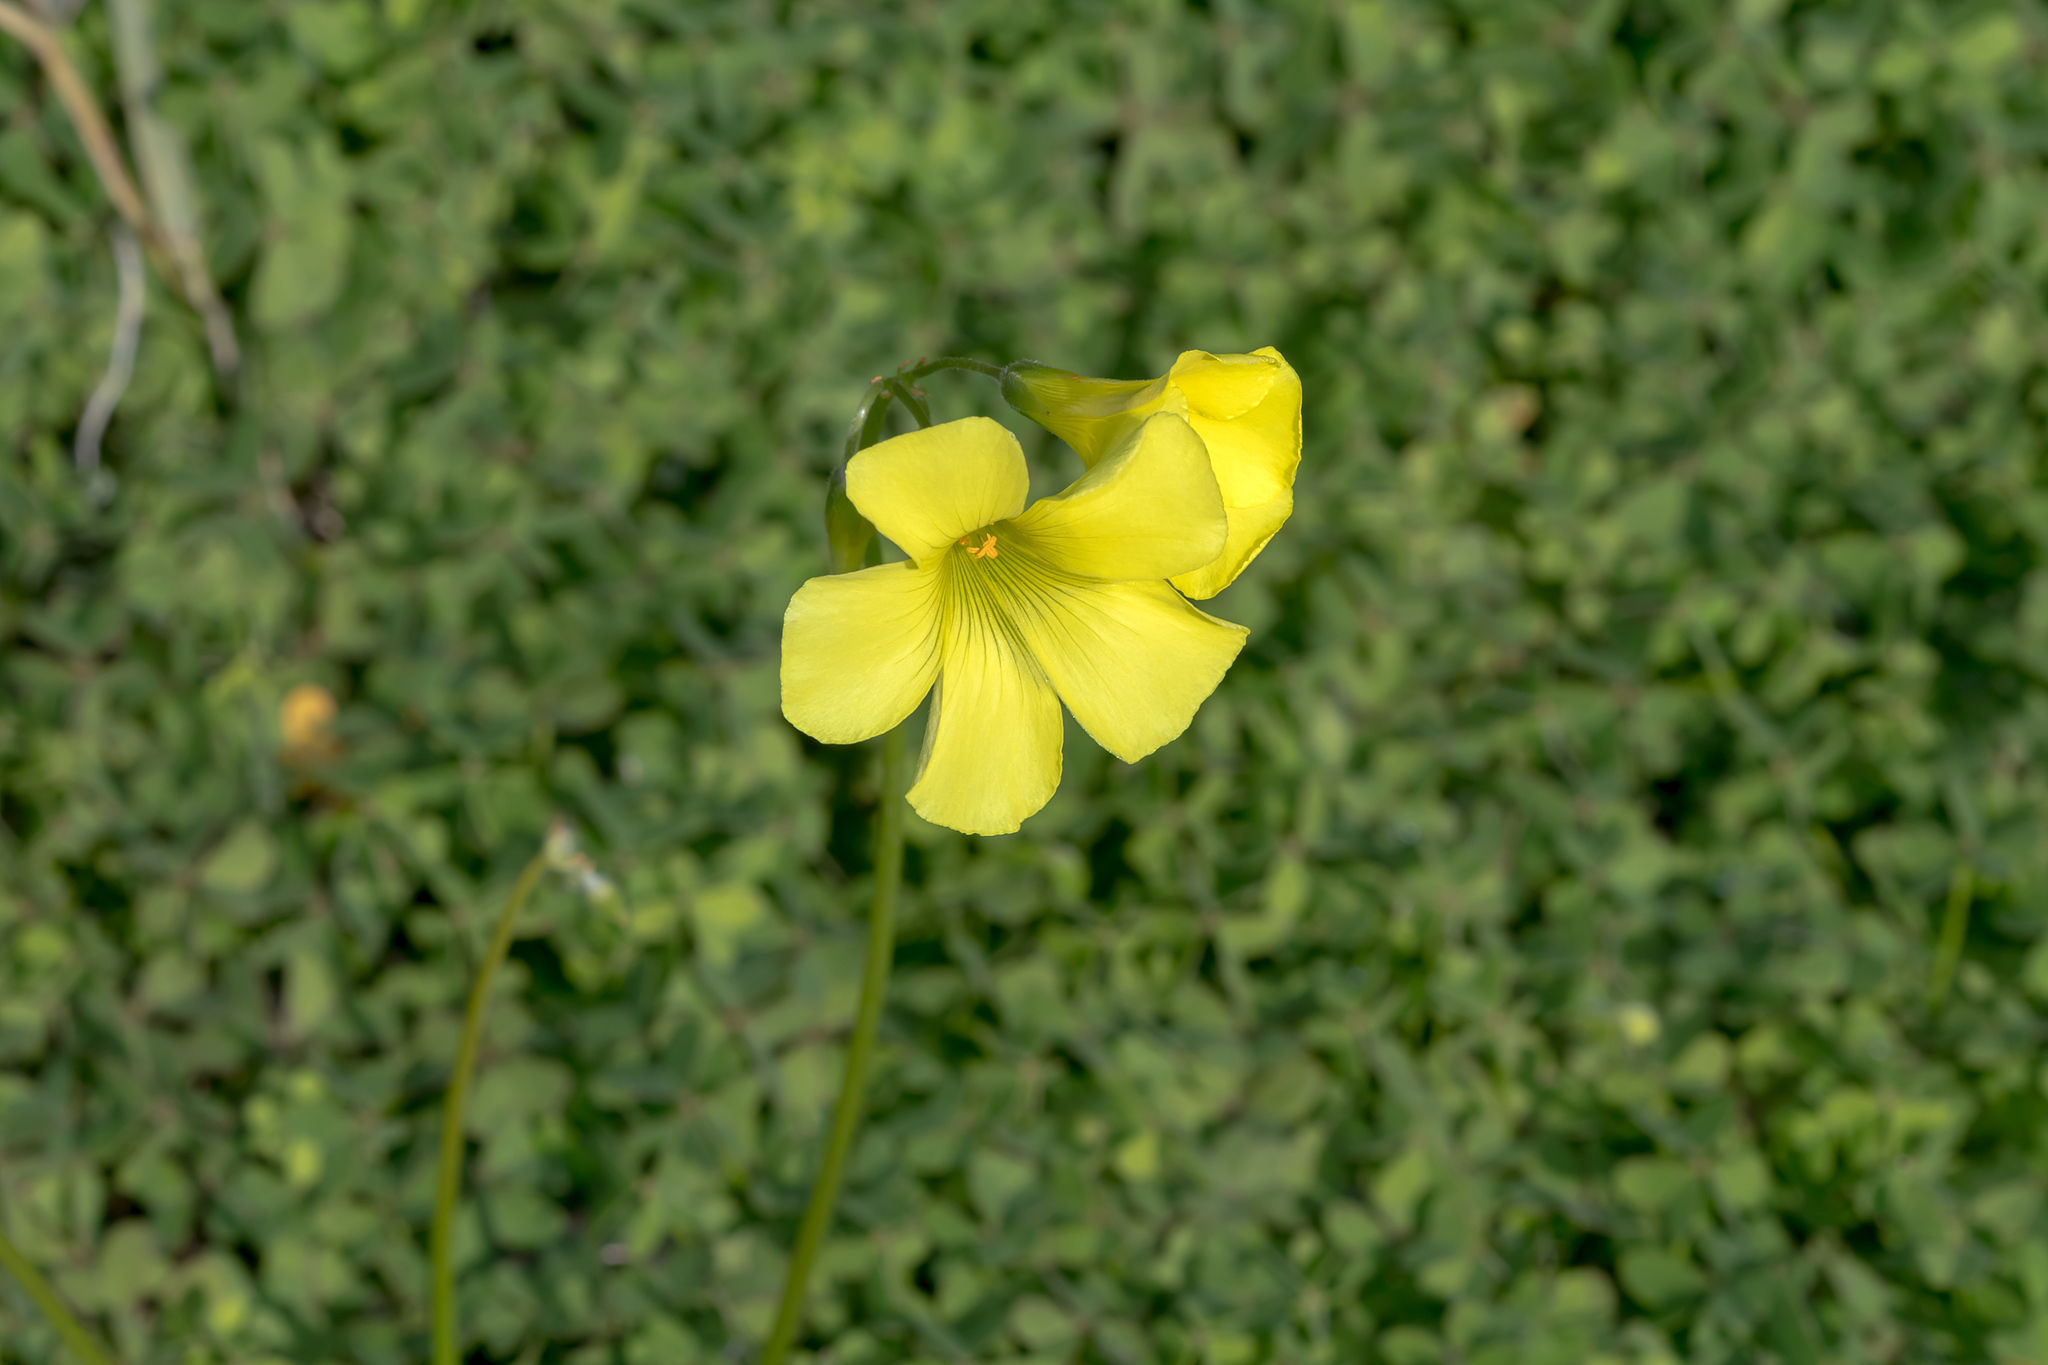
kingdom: Plantae
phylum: Tracheophyta
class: Magnoliopsida
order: Oxalidales
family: Oxalidaceae
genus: Oxalis
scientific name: Oxalis pes-caprae
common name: Bermuda-buttercup
